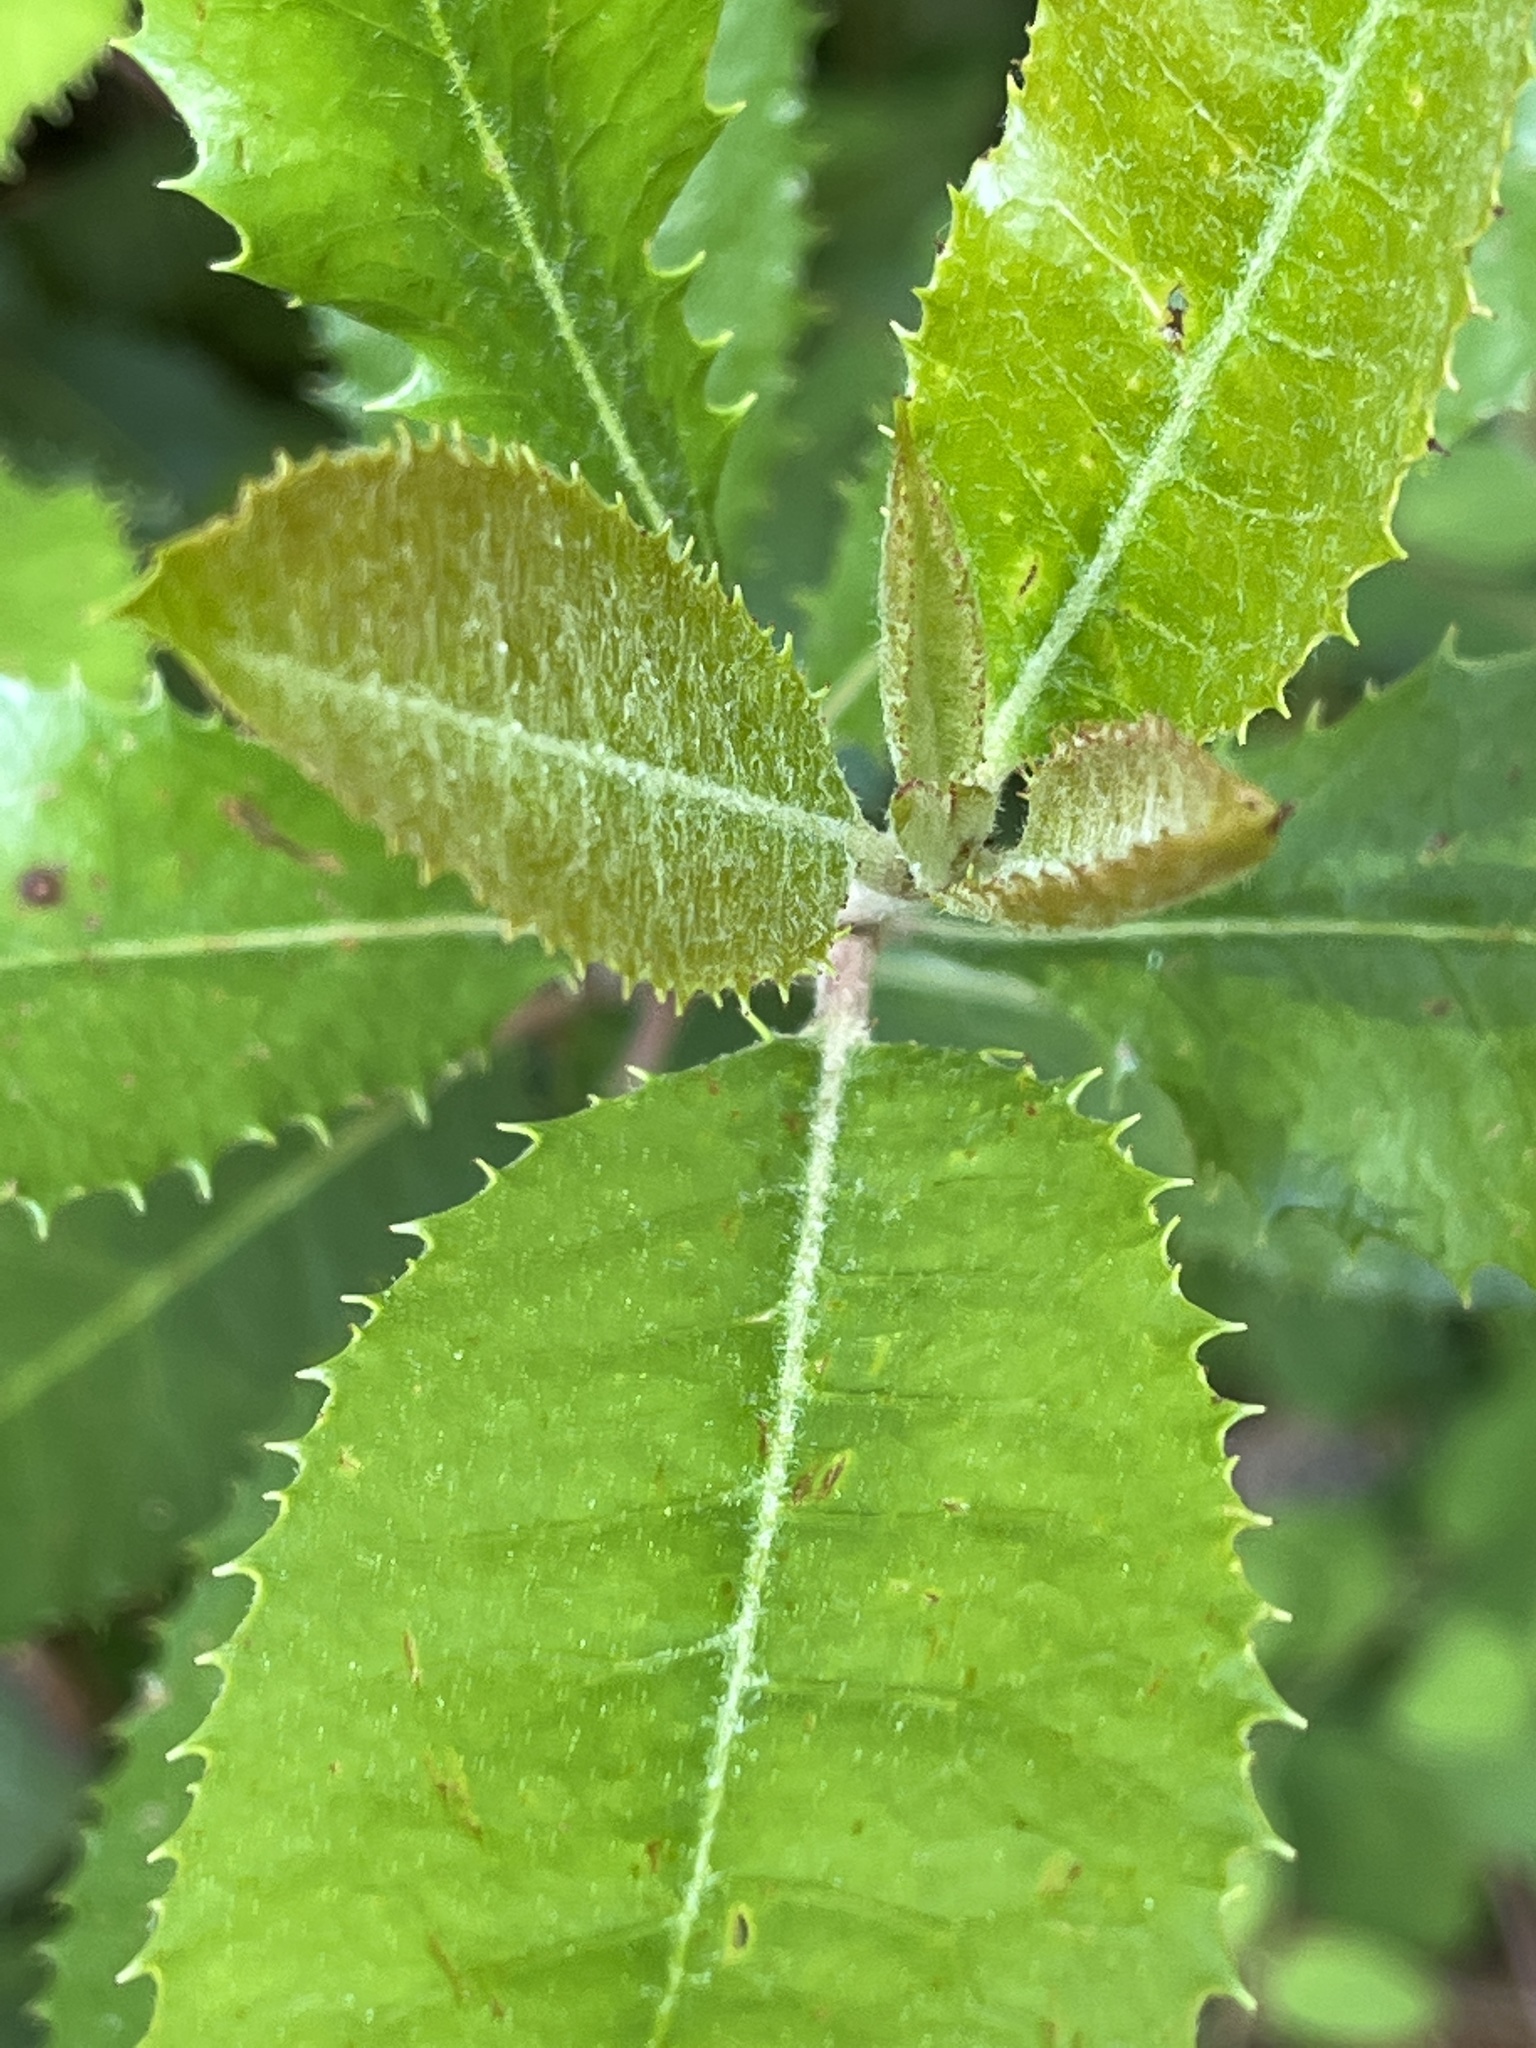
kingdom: Plantae
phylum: Tracheophyta
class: Magnoliopsida
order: Rosales
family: Rosaceae
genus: Heteromeles
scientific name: Heteromeles arbutifolia
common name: California-holly
